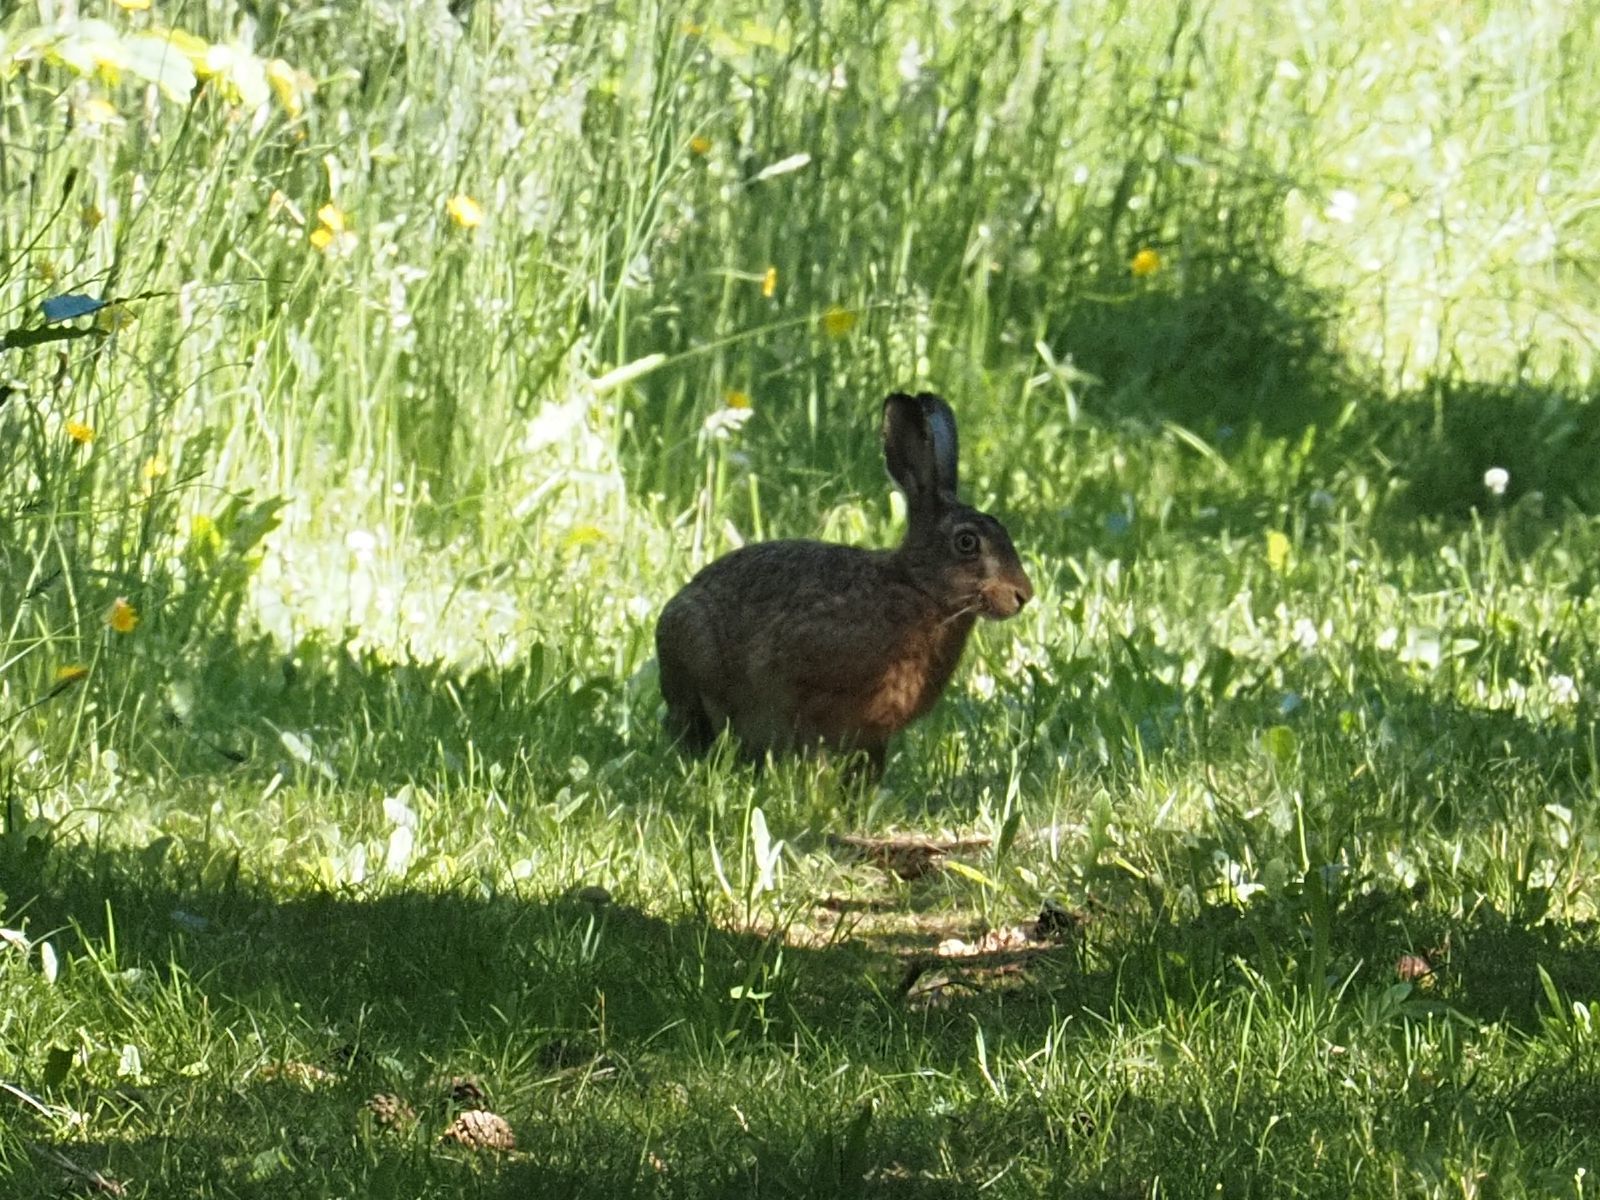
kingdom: Animalia
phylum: Chordata
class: Mammalia
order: Lagomorpha
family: Leporidae
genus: Lepus
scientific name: Lepus europaeus
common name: European hare
